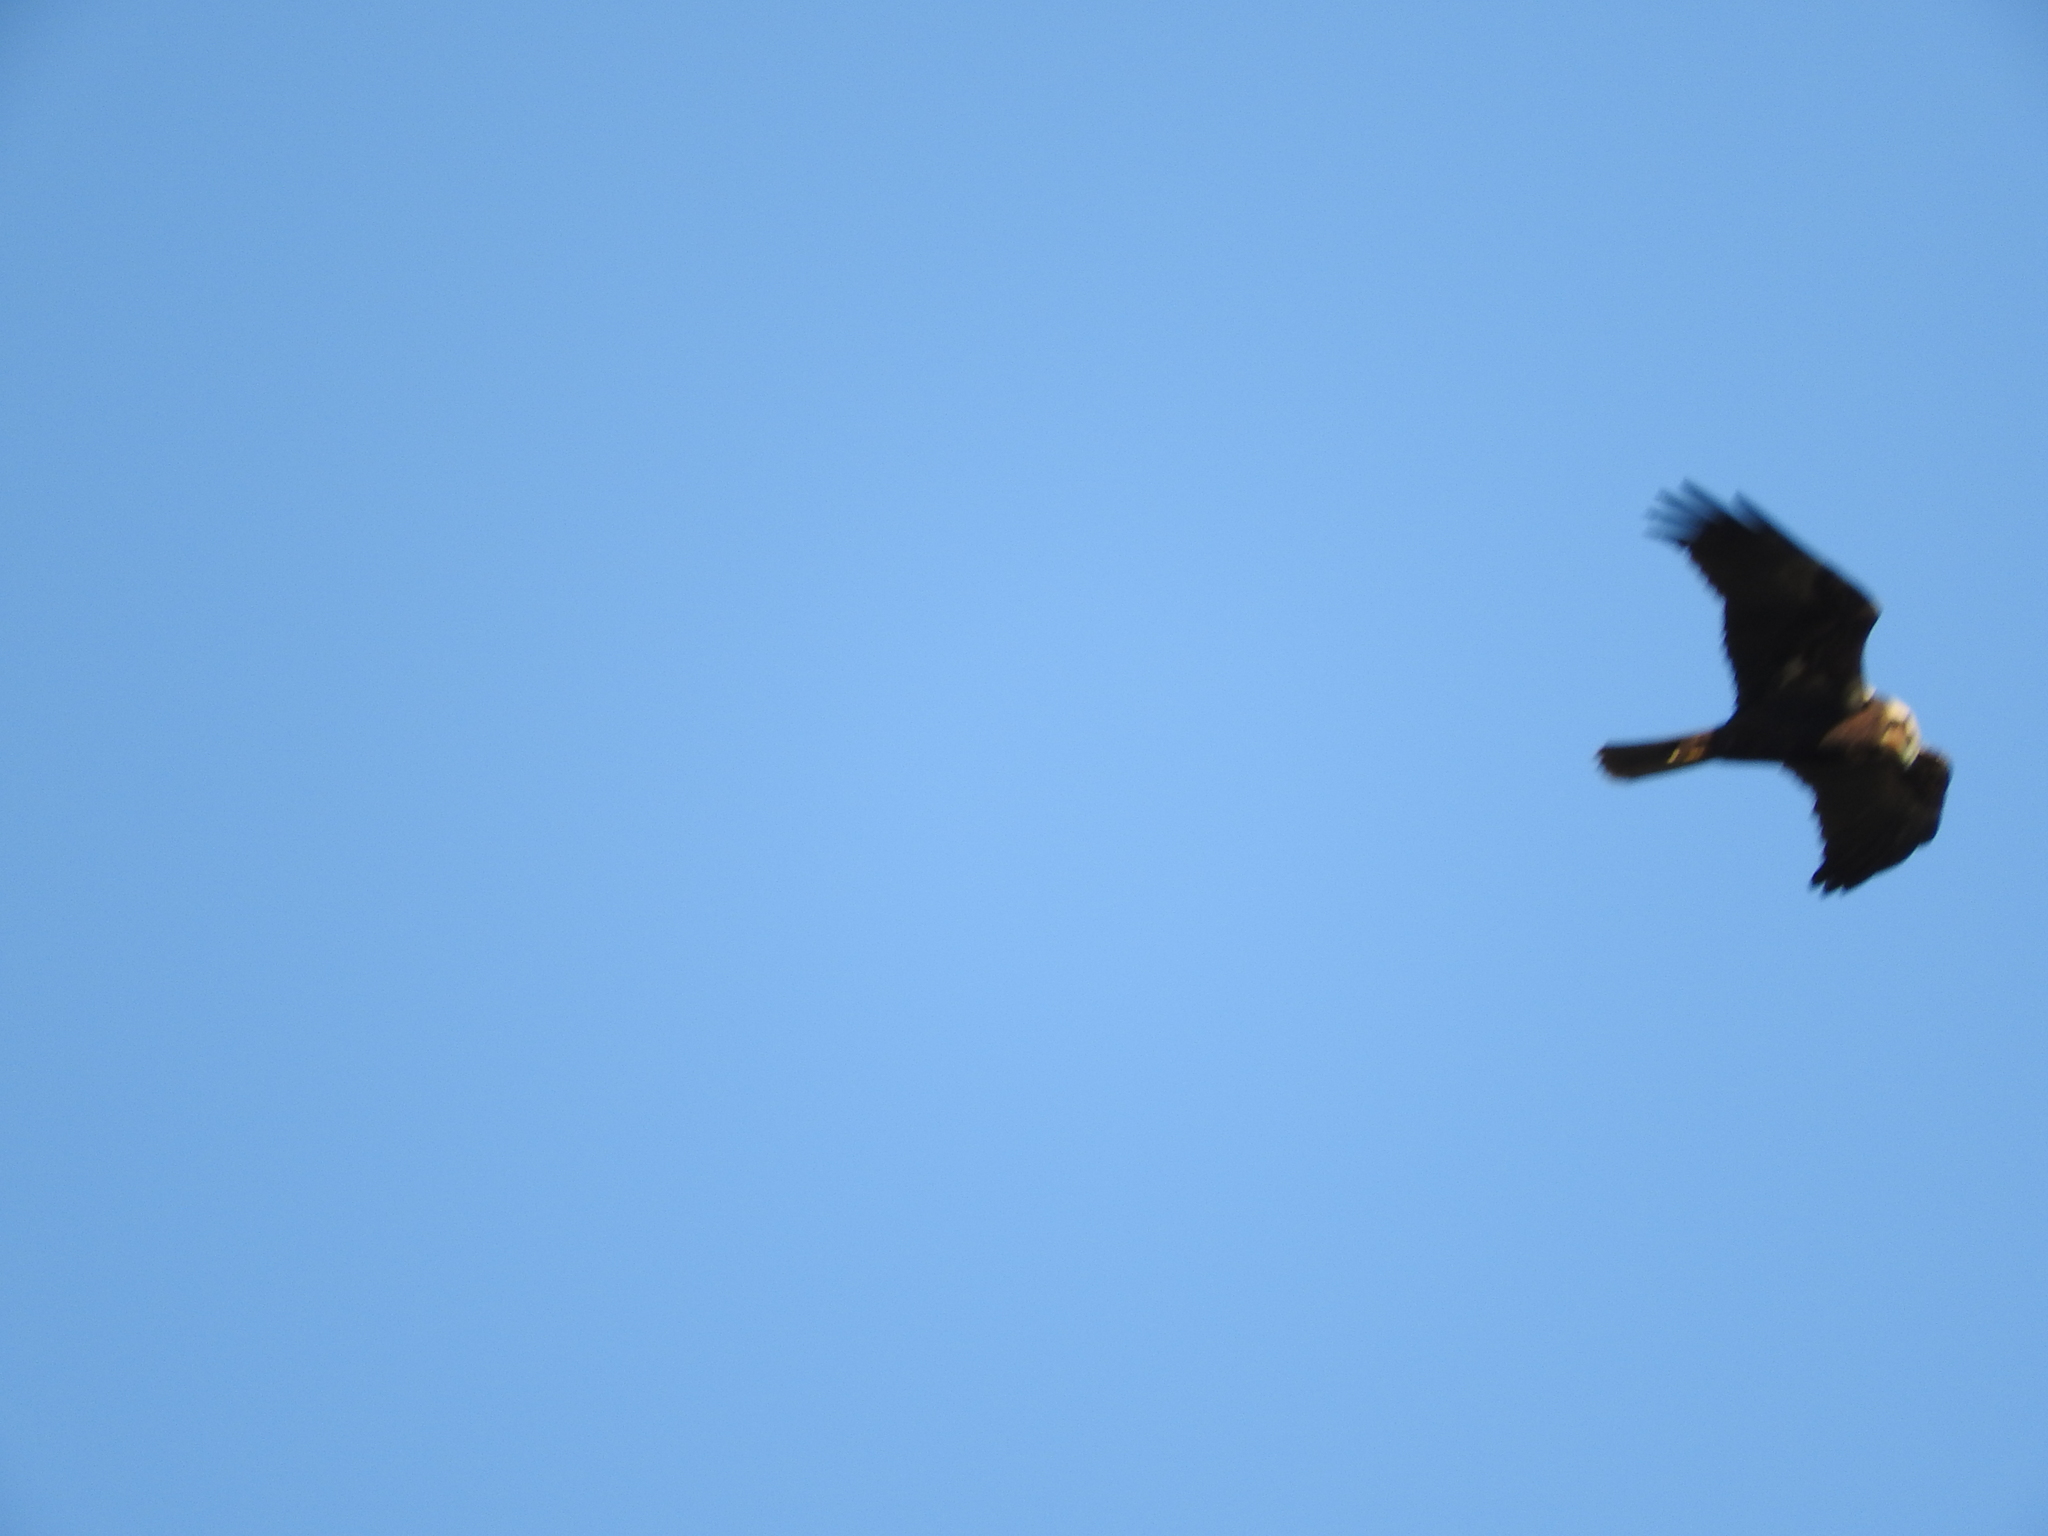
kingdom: Animalia
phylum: Chordata
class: Aves
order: Accipitriformes
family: Accipitridae
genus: Circus
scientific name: Circus aeruginosus
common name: Western marsh harrier
